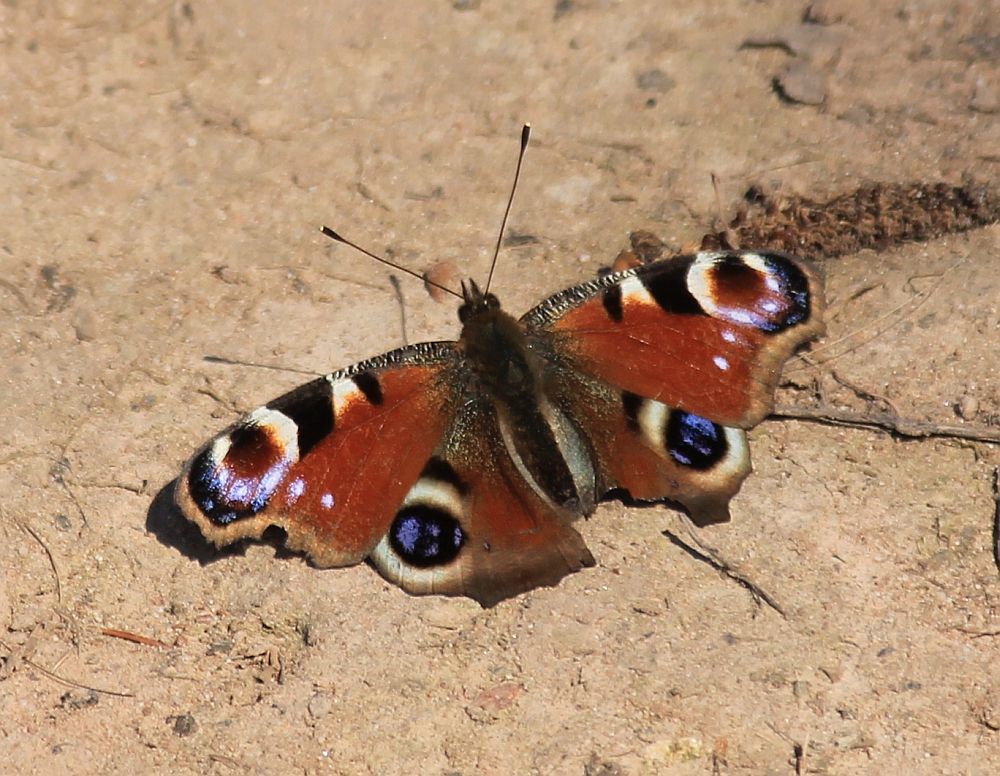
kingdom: Animalia
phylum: Arthropoda
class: Insecta
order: Lepidoptera
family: Nymphalidae
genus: Aglais
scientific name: Aglais io
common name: Peacock
